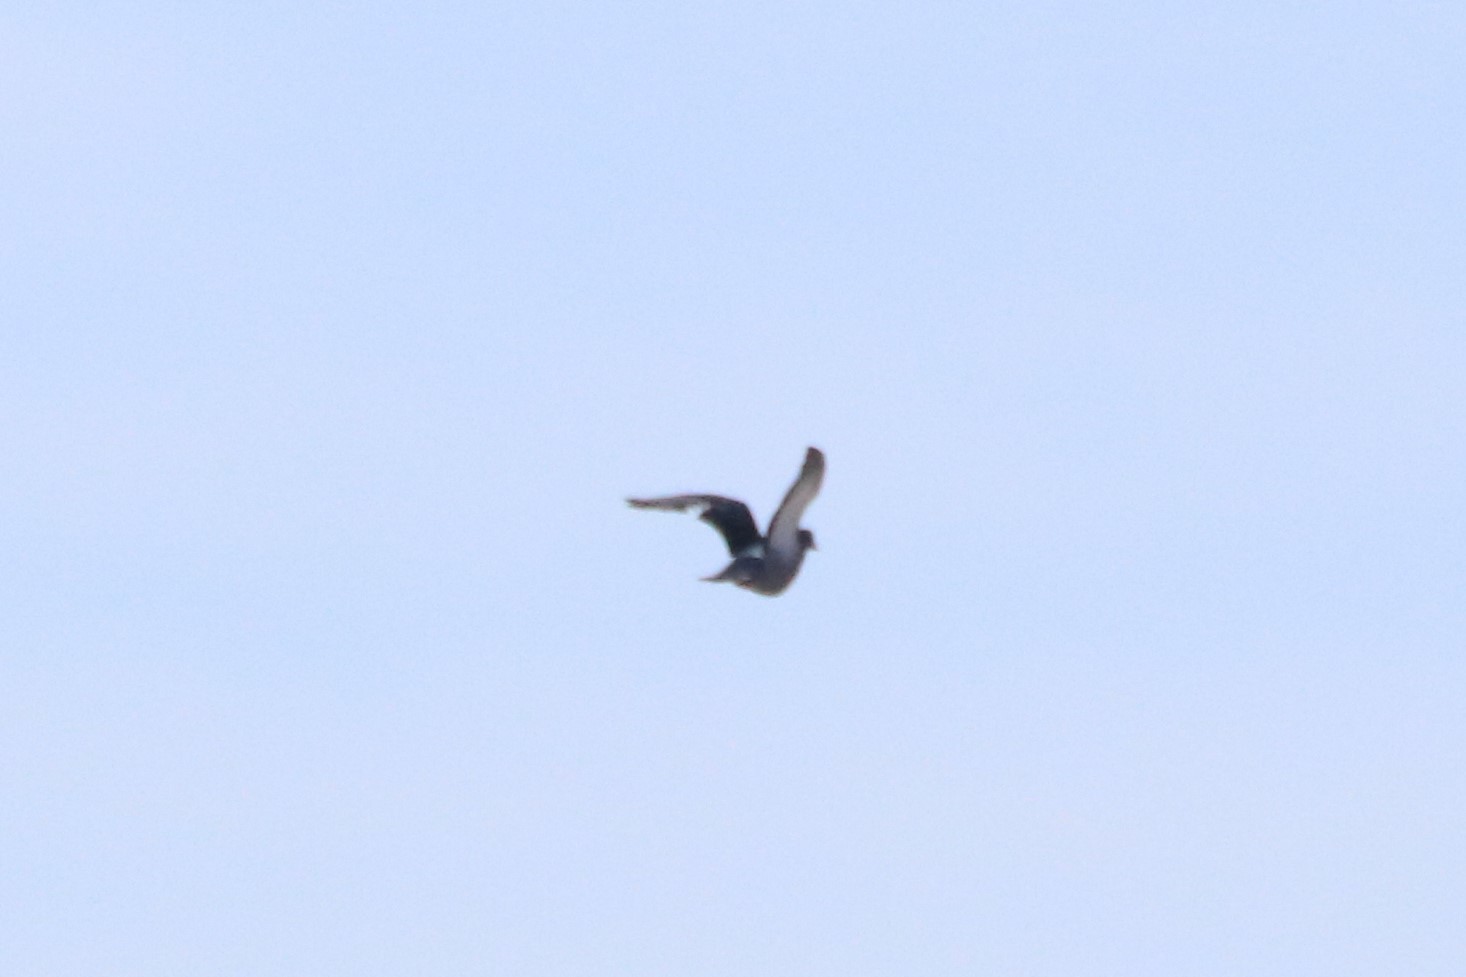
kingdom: Animalia
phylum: Chordata
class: Aves
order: Columbiformes
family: Columbidae
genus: Columba
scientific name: Columba livia
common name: Rock pigeon
